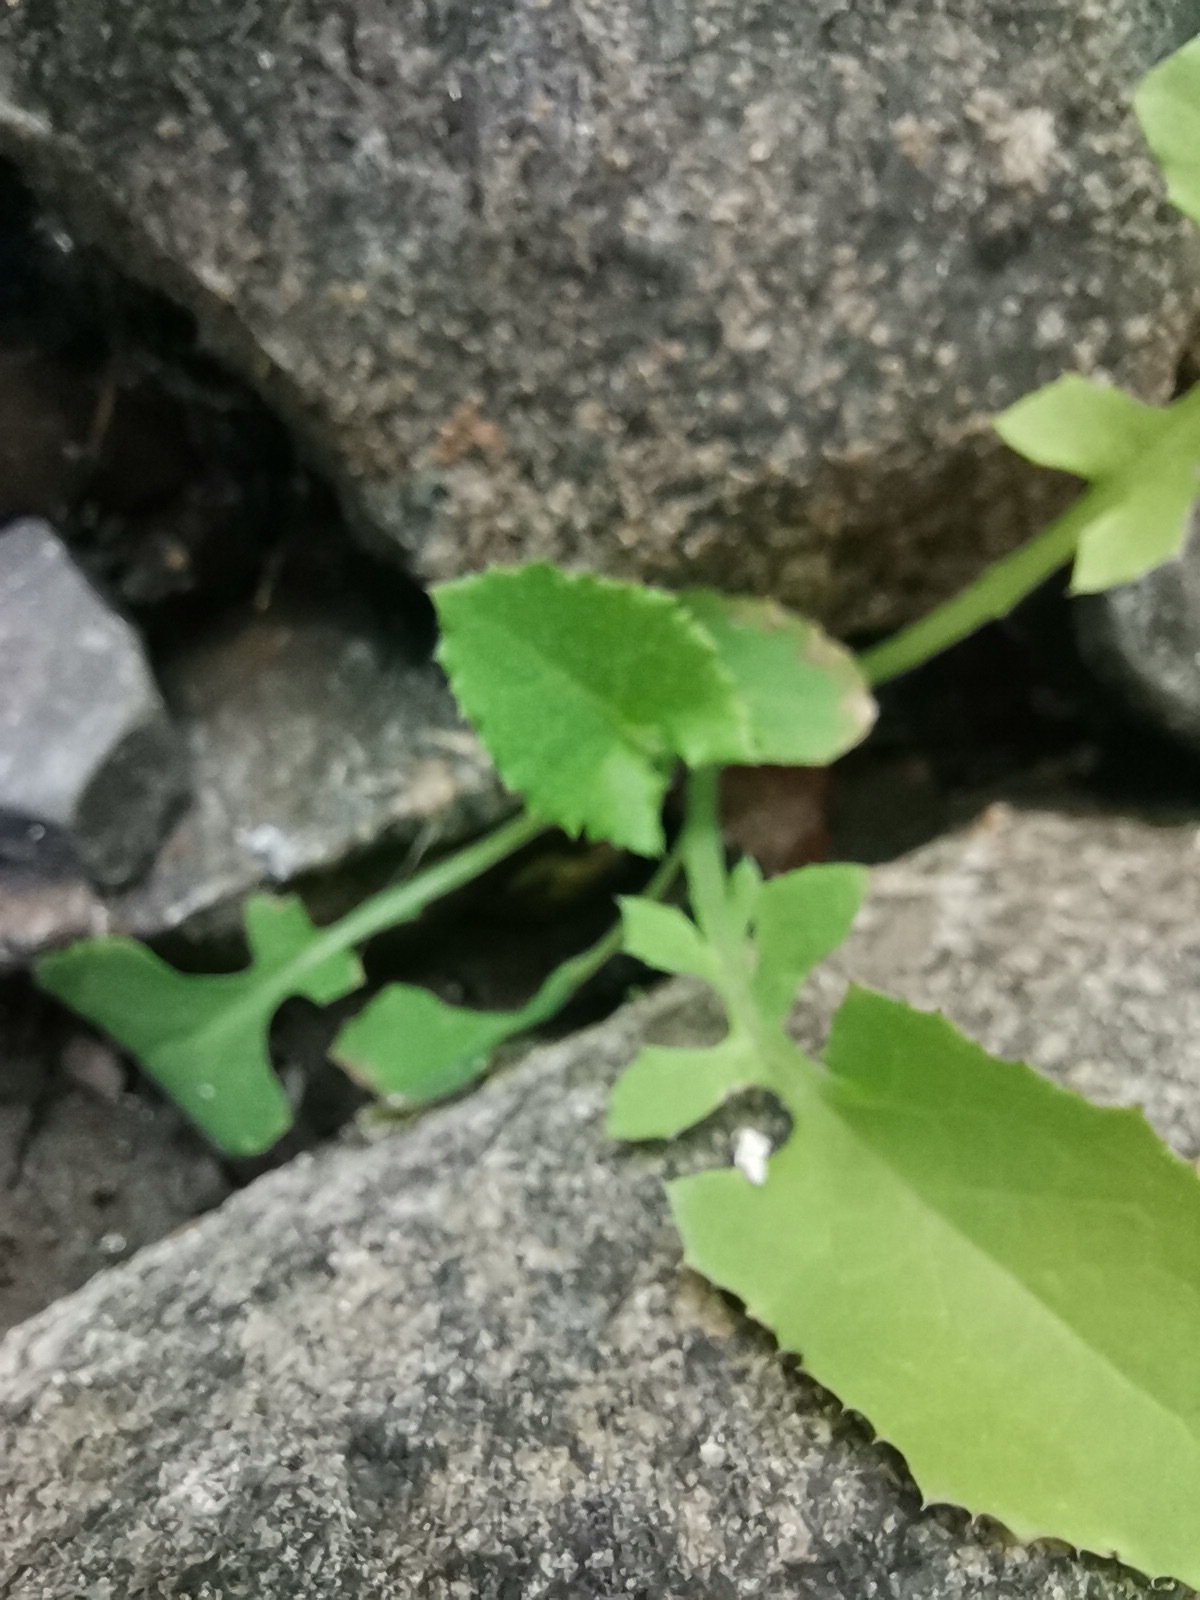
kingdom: Plantae
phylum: Tracheophyta
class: Magnoliopsida
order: Asterales
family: Asteraceae
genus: Sonchus
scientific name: Sonchus oleraceus
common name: Common sowthistle
